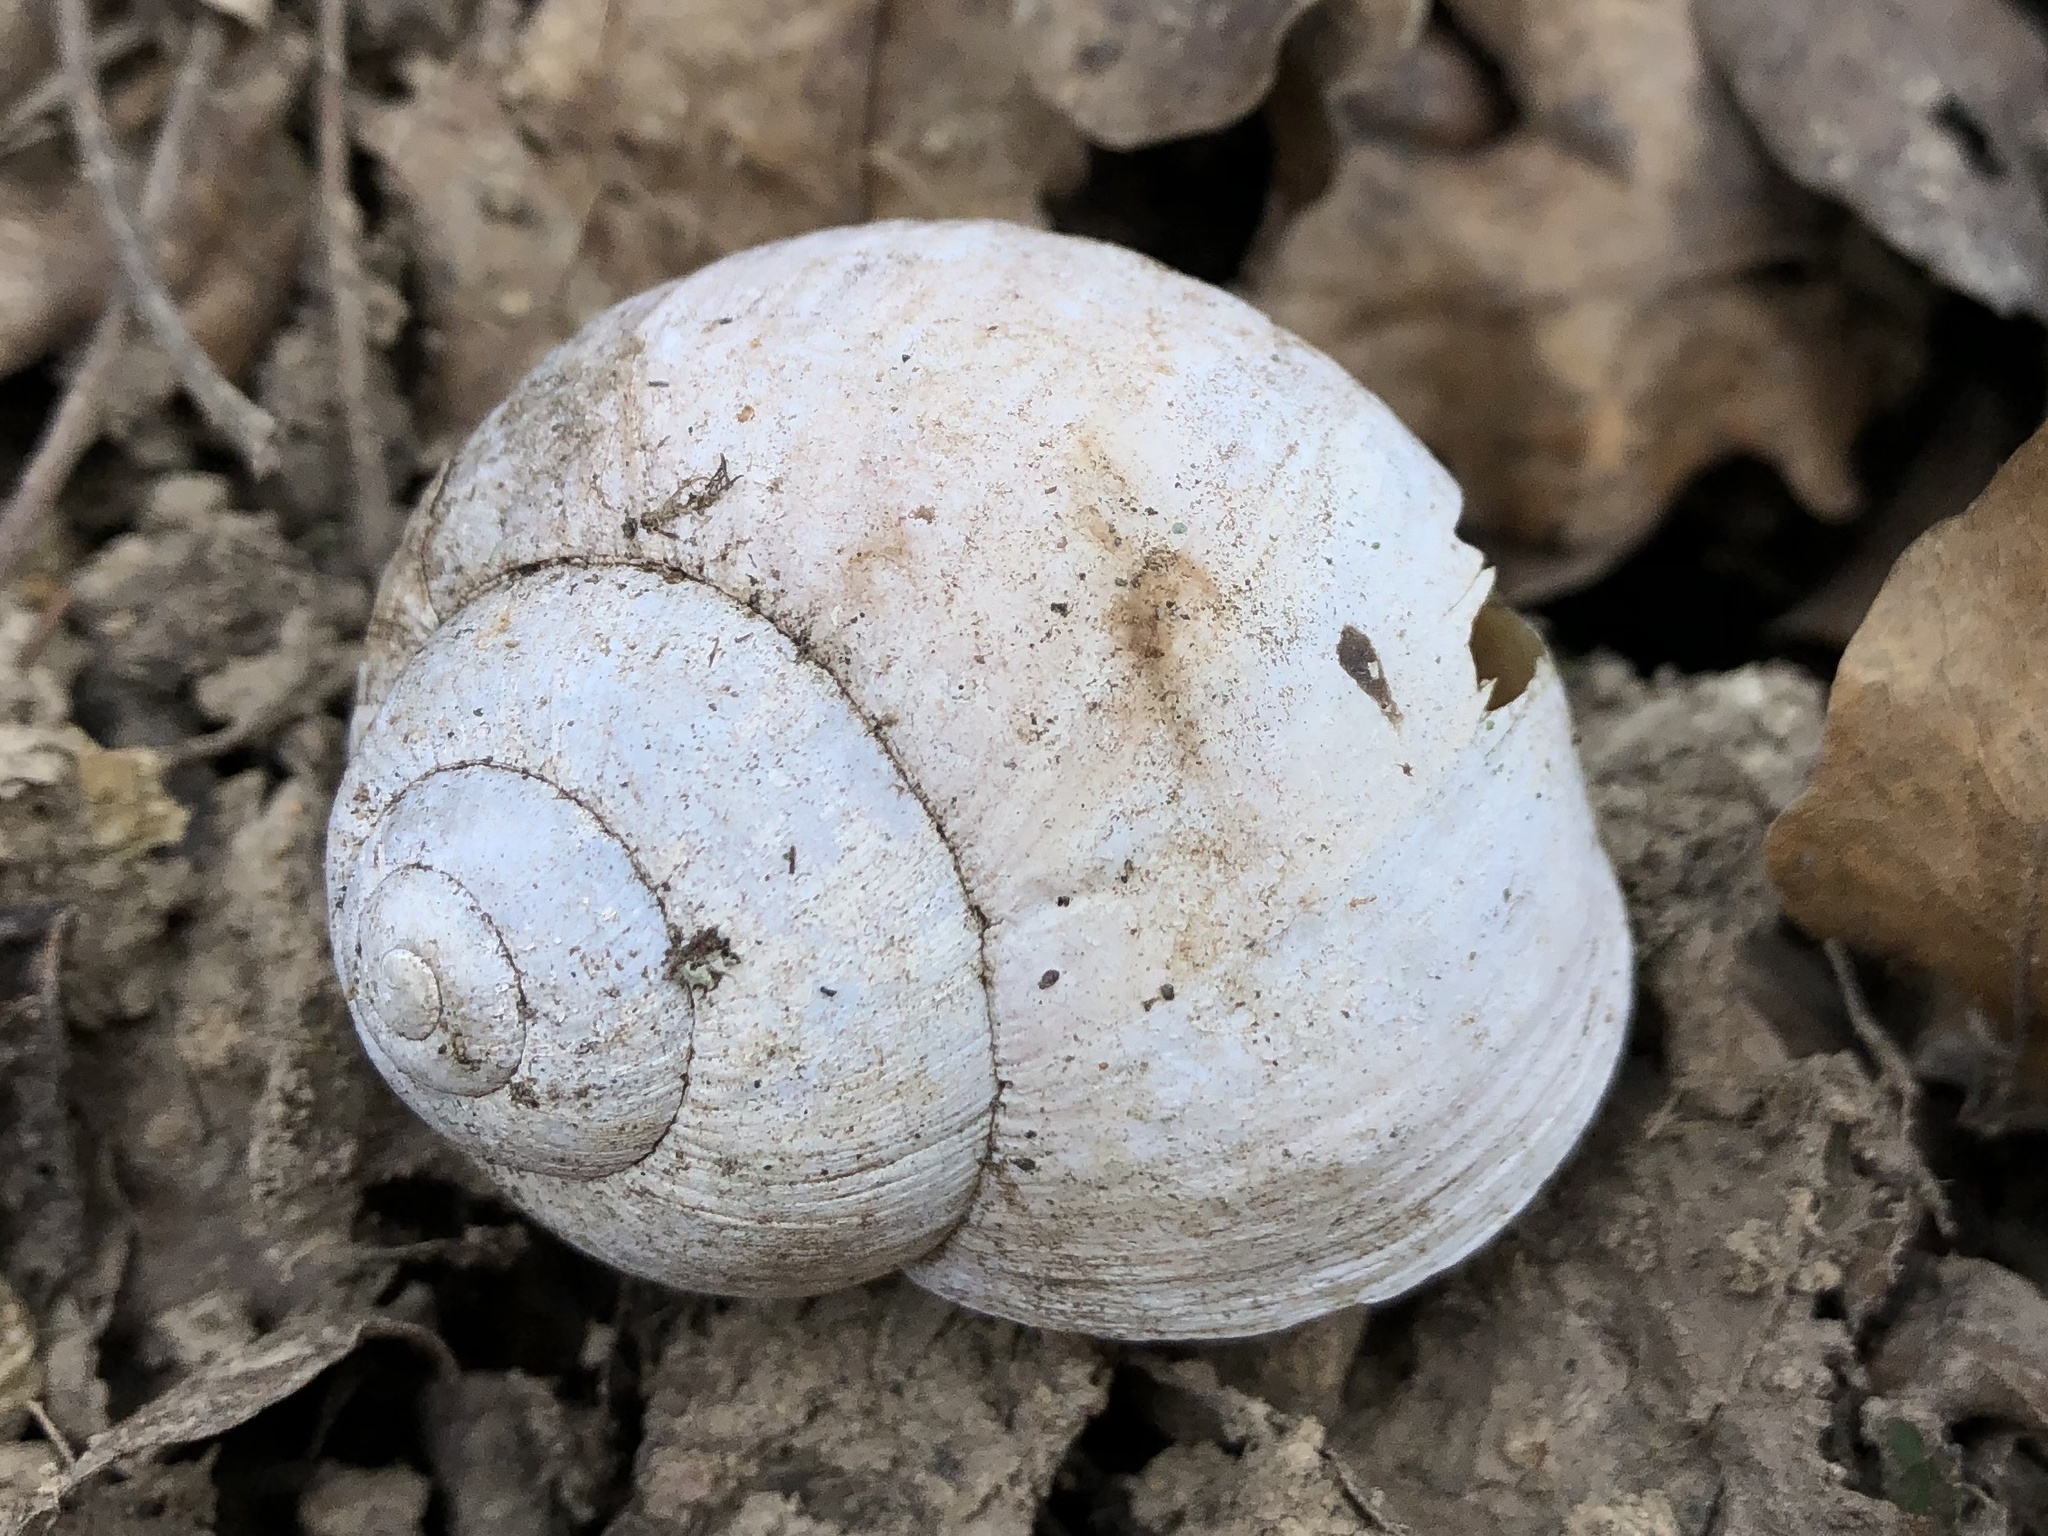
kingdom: Animalia
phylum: Mollusca
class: Gastropoda
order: Stylommatophora
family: Helicidae
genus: Helix
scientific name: Helix pomatia
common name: Roman snail
